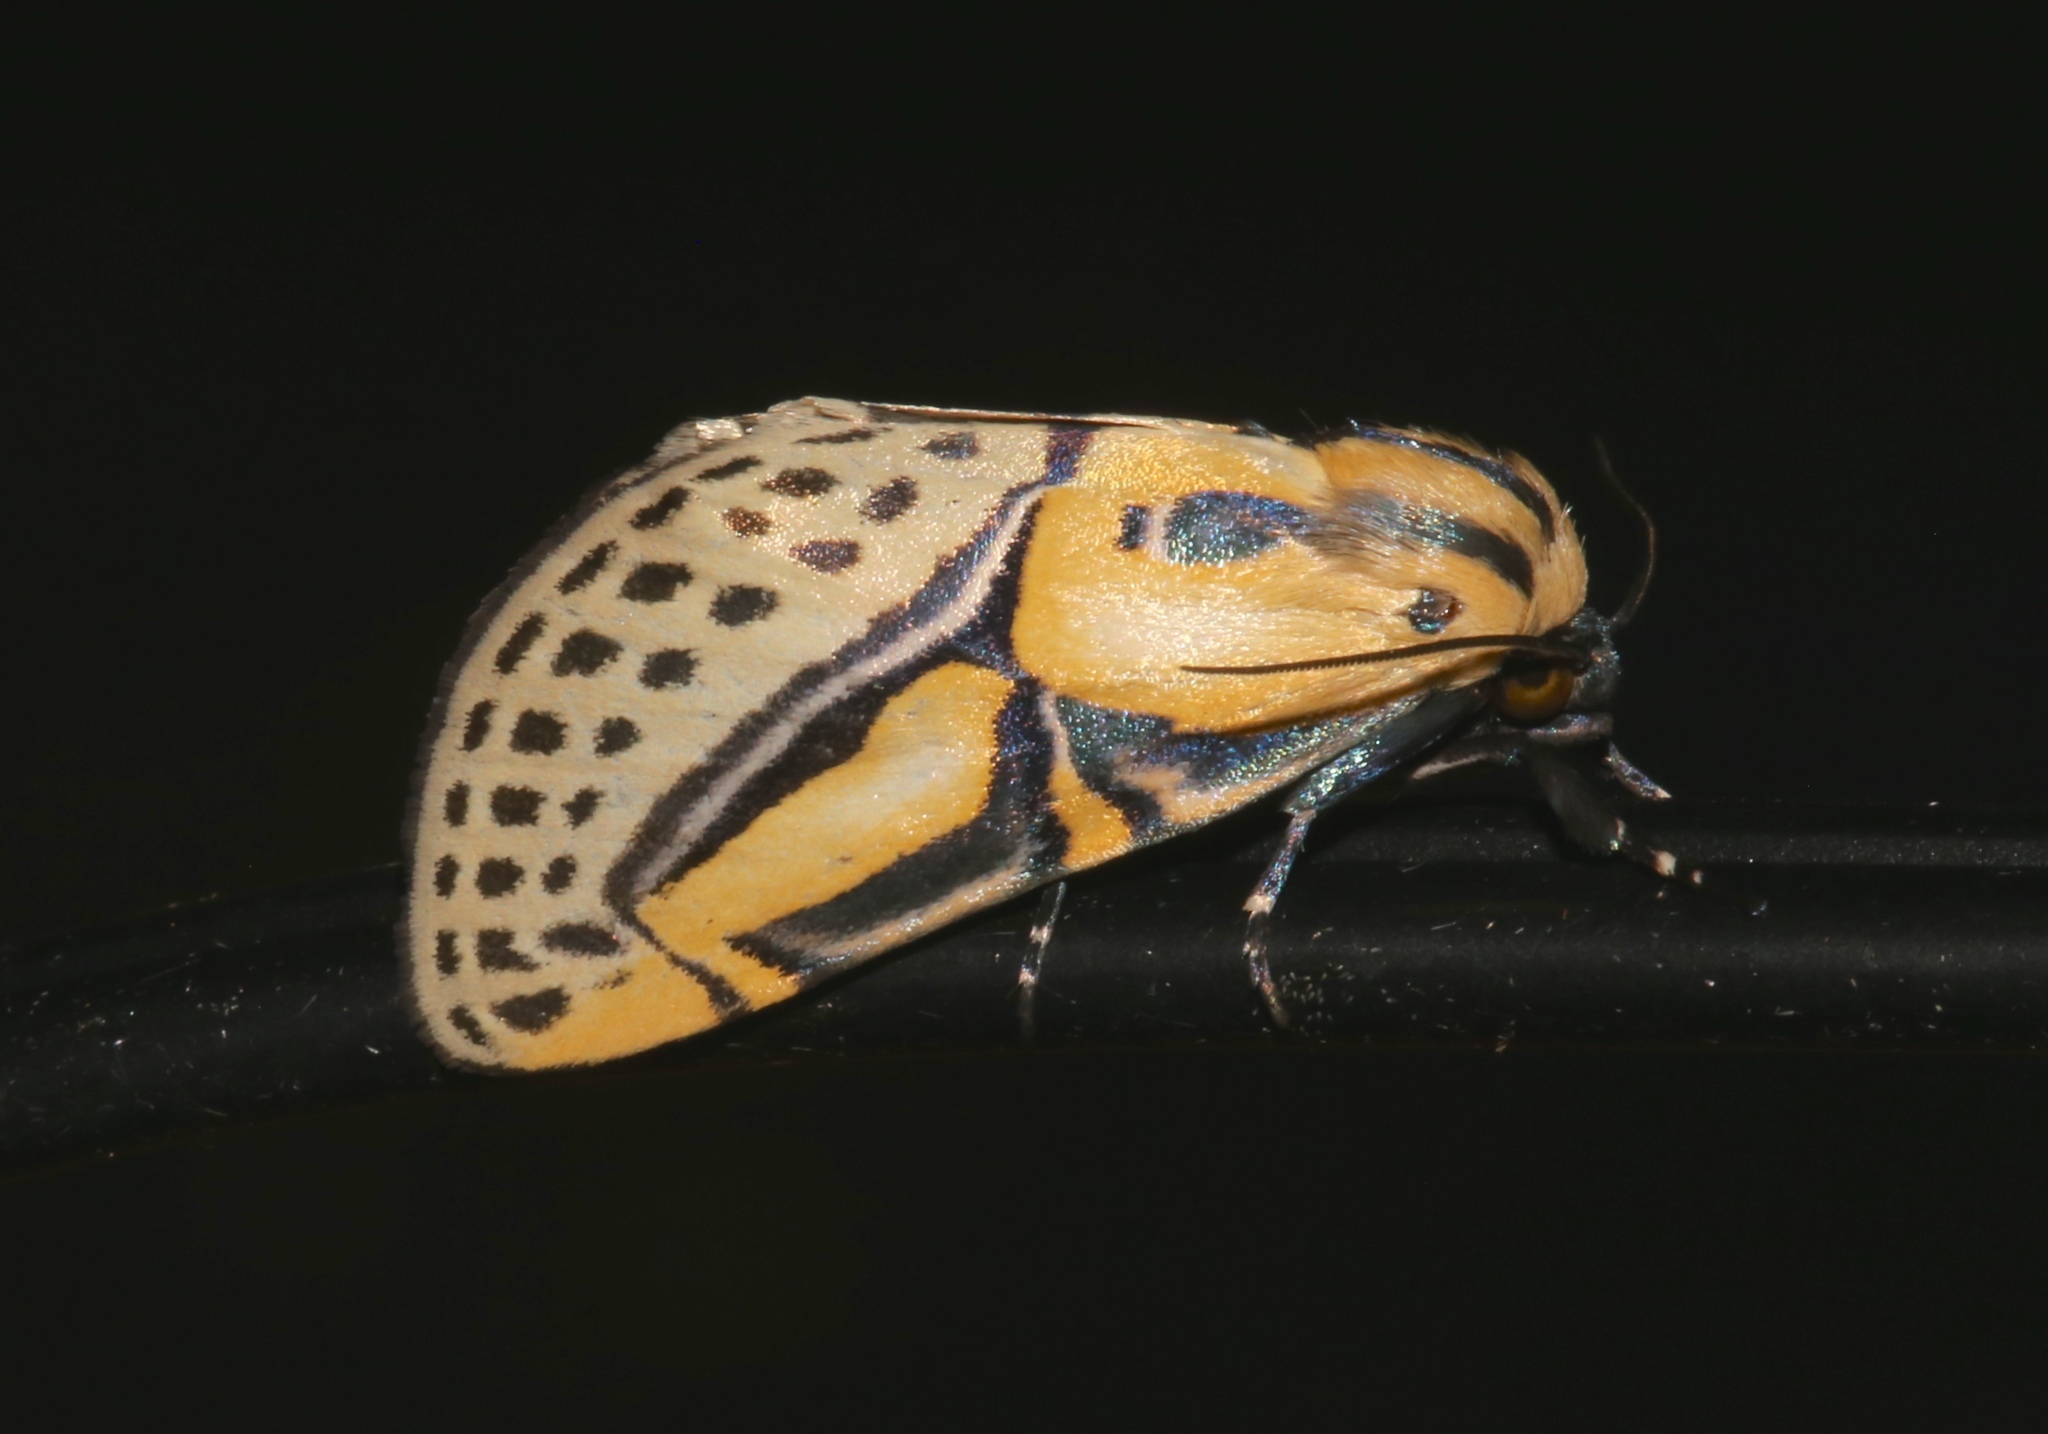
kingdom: Animalia
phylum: Arthropoda
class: Insecta
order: Lepidoptera
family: Erebidae
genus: Diphthera
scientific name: Diphthera festiva
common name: Hieroglyphic moth
